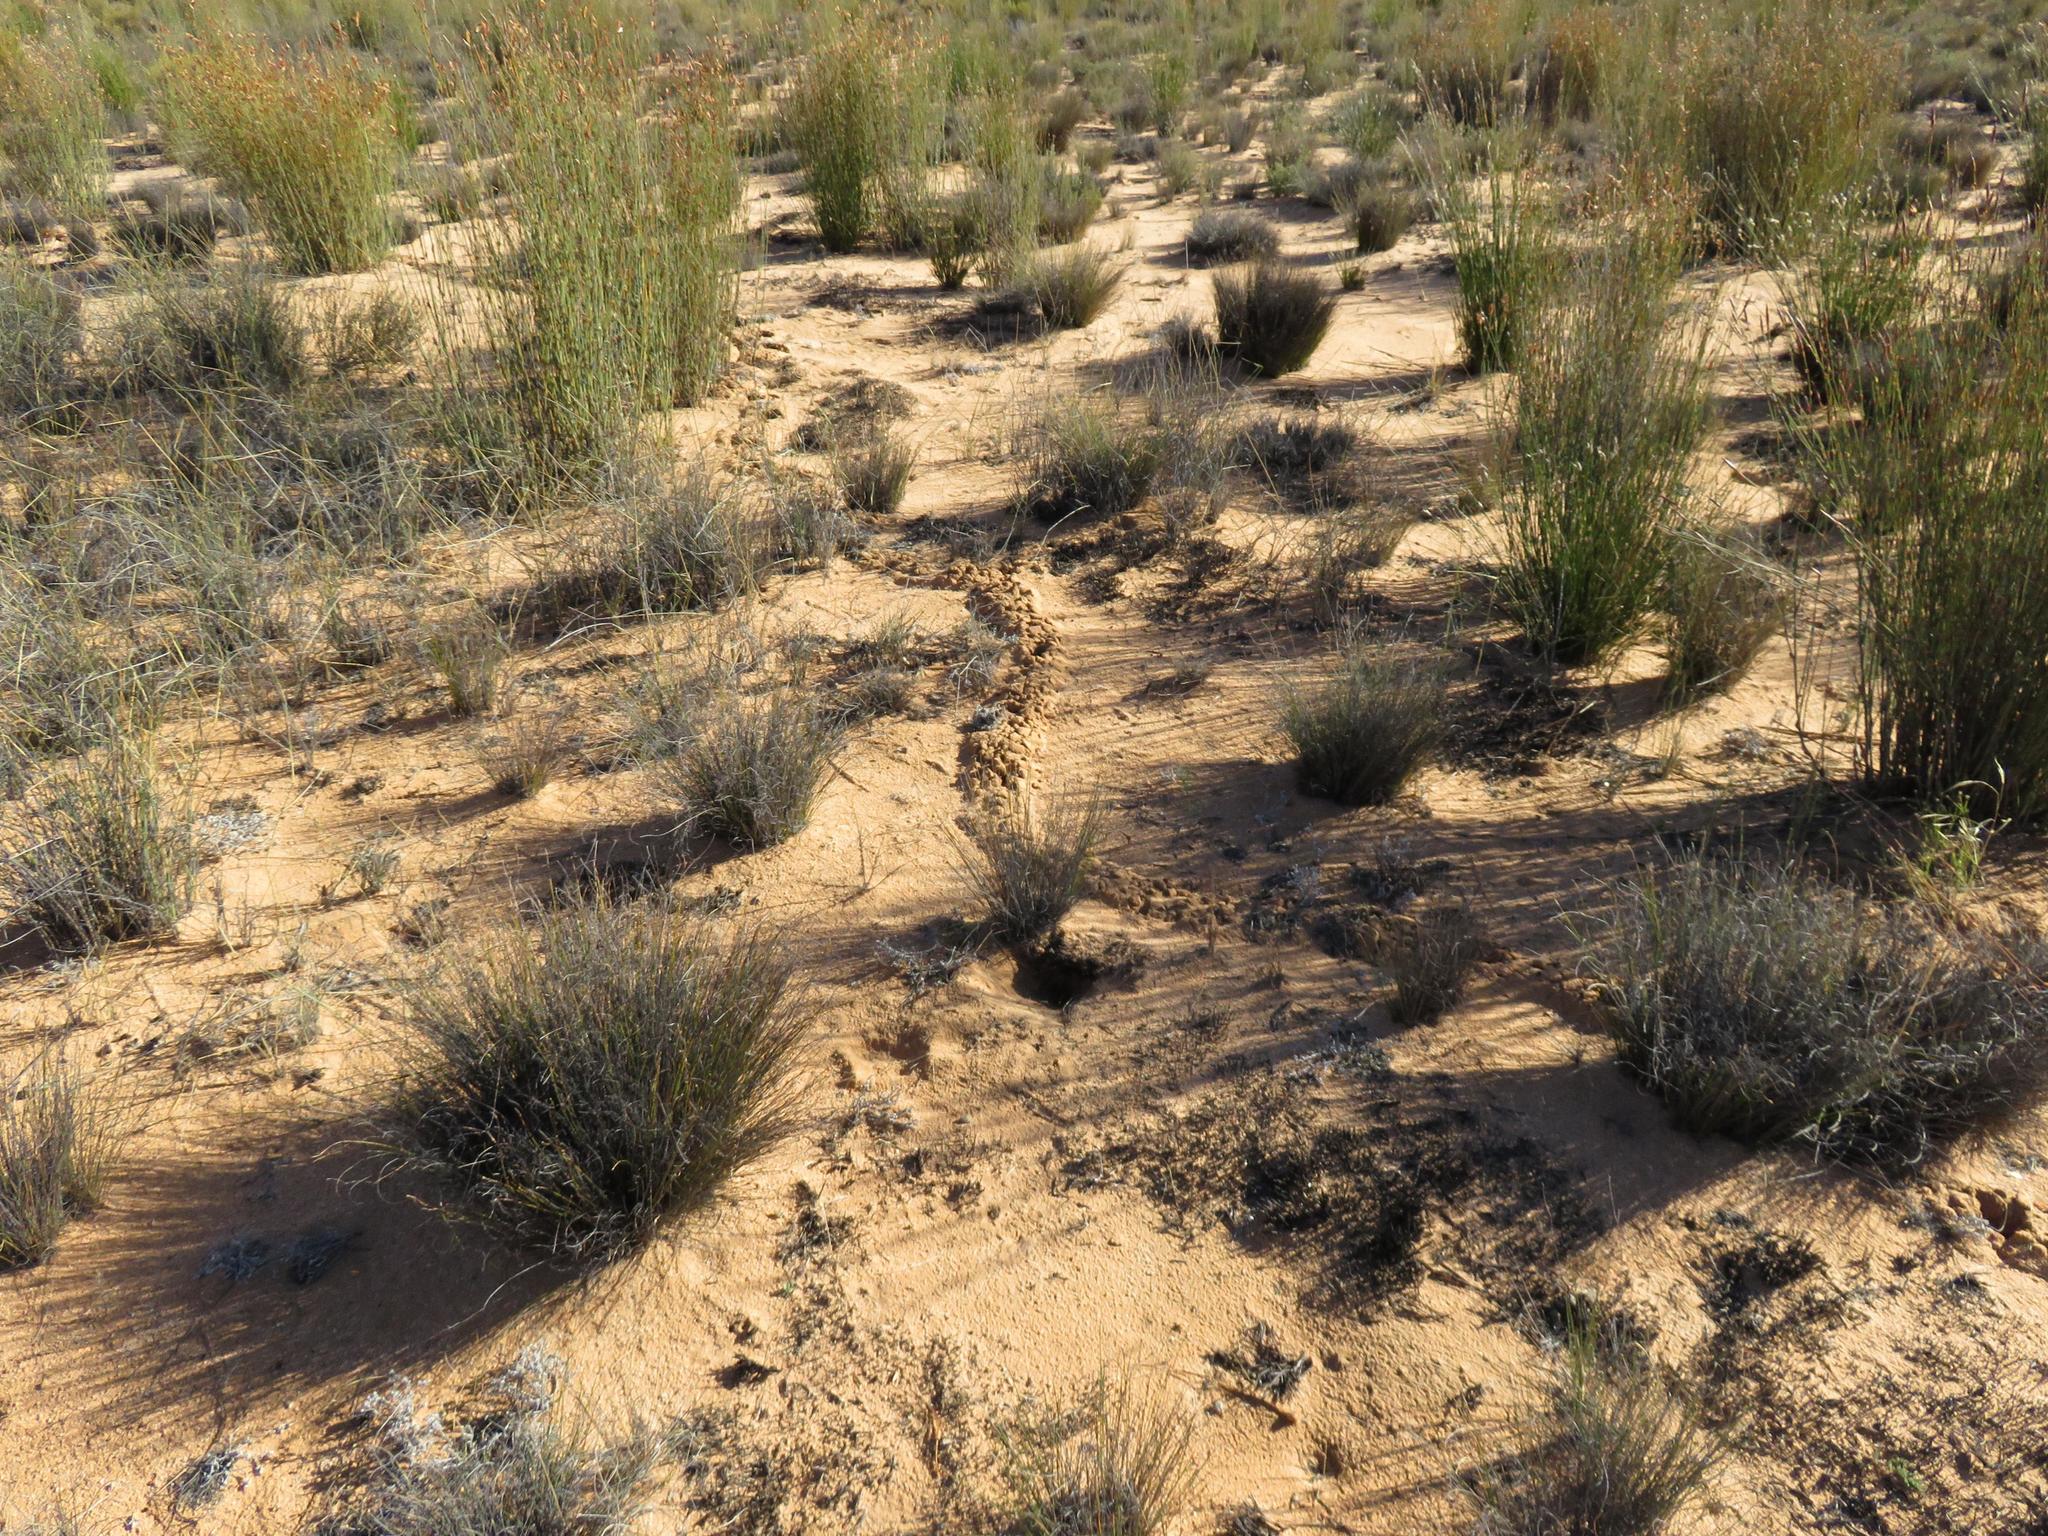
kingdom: Animalia
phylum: Chordata
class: Mammalia
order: Afrosoricida
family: Chrysochloridae
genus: Chrysochloris
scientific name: Chrysochloris asiatica
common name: Cape golden mole
